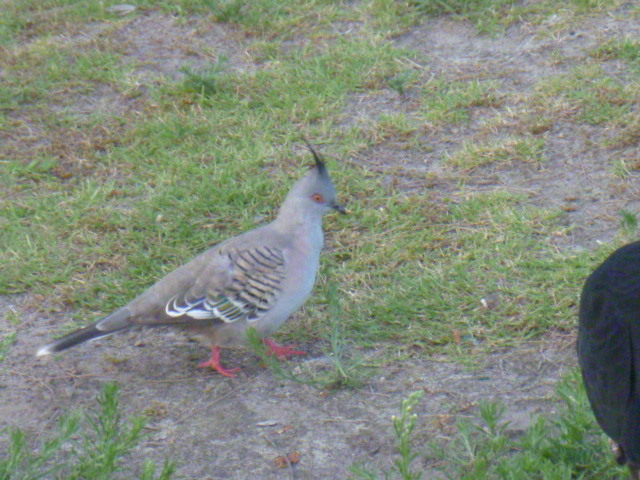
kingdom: Animalia
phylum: Chordata
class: Aves
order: Columbiformes
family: Columbidae
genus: Ocyphaps
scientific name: Ocyphaps lophotes
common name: Crested pigeon
